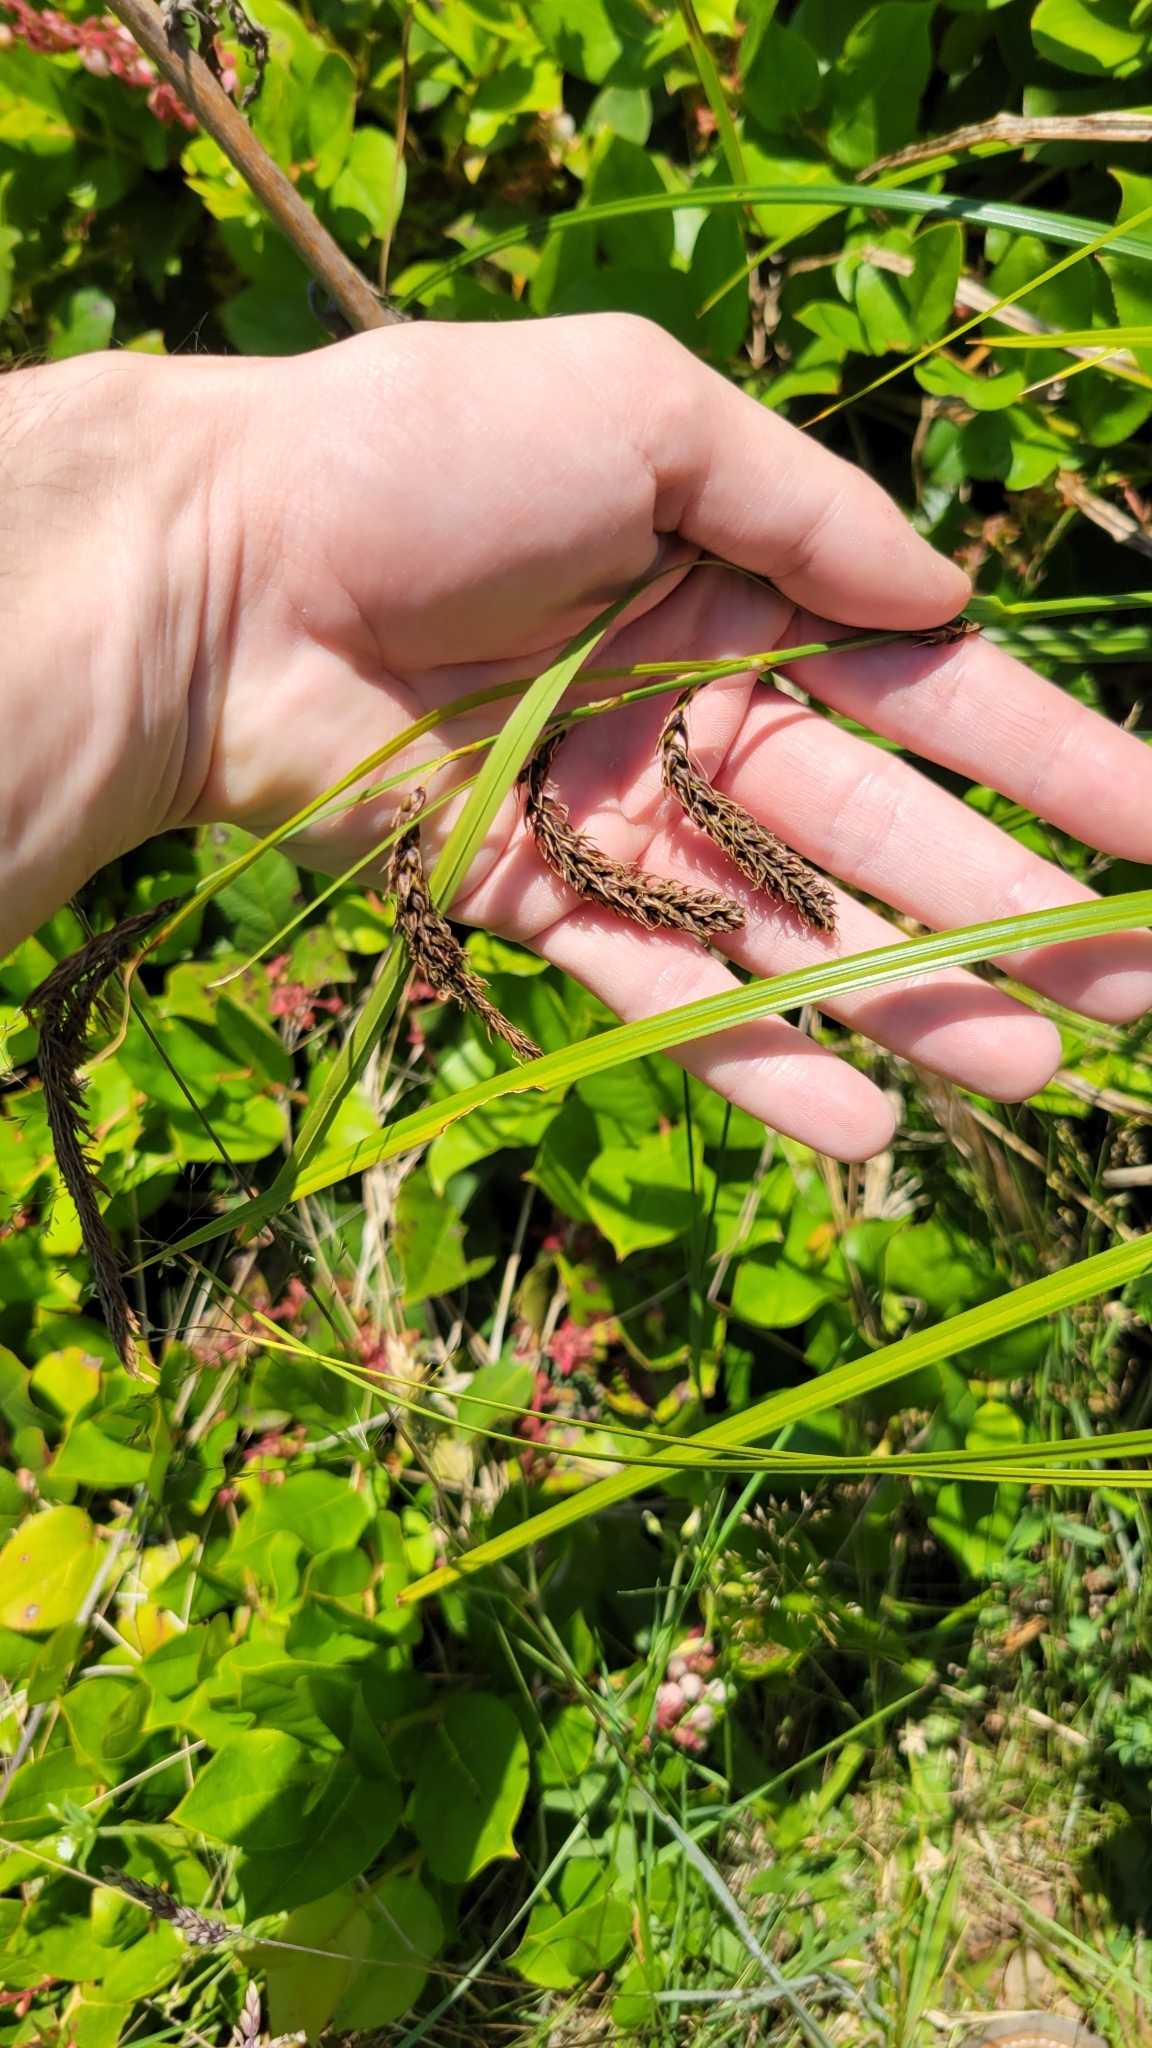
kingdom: Plantae
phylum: Tracheophyta
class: Liliopsida
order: Poales
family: Cyperaceae
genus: Carex
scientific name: Carex obnupta
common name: Slough sedge
